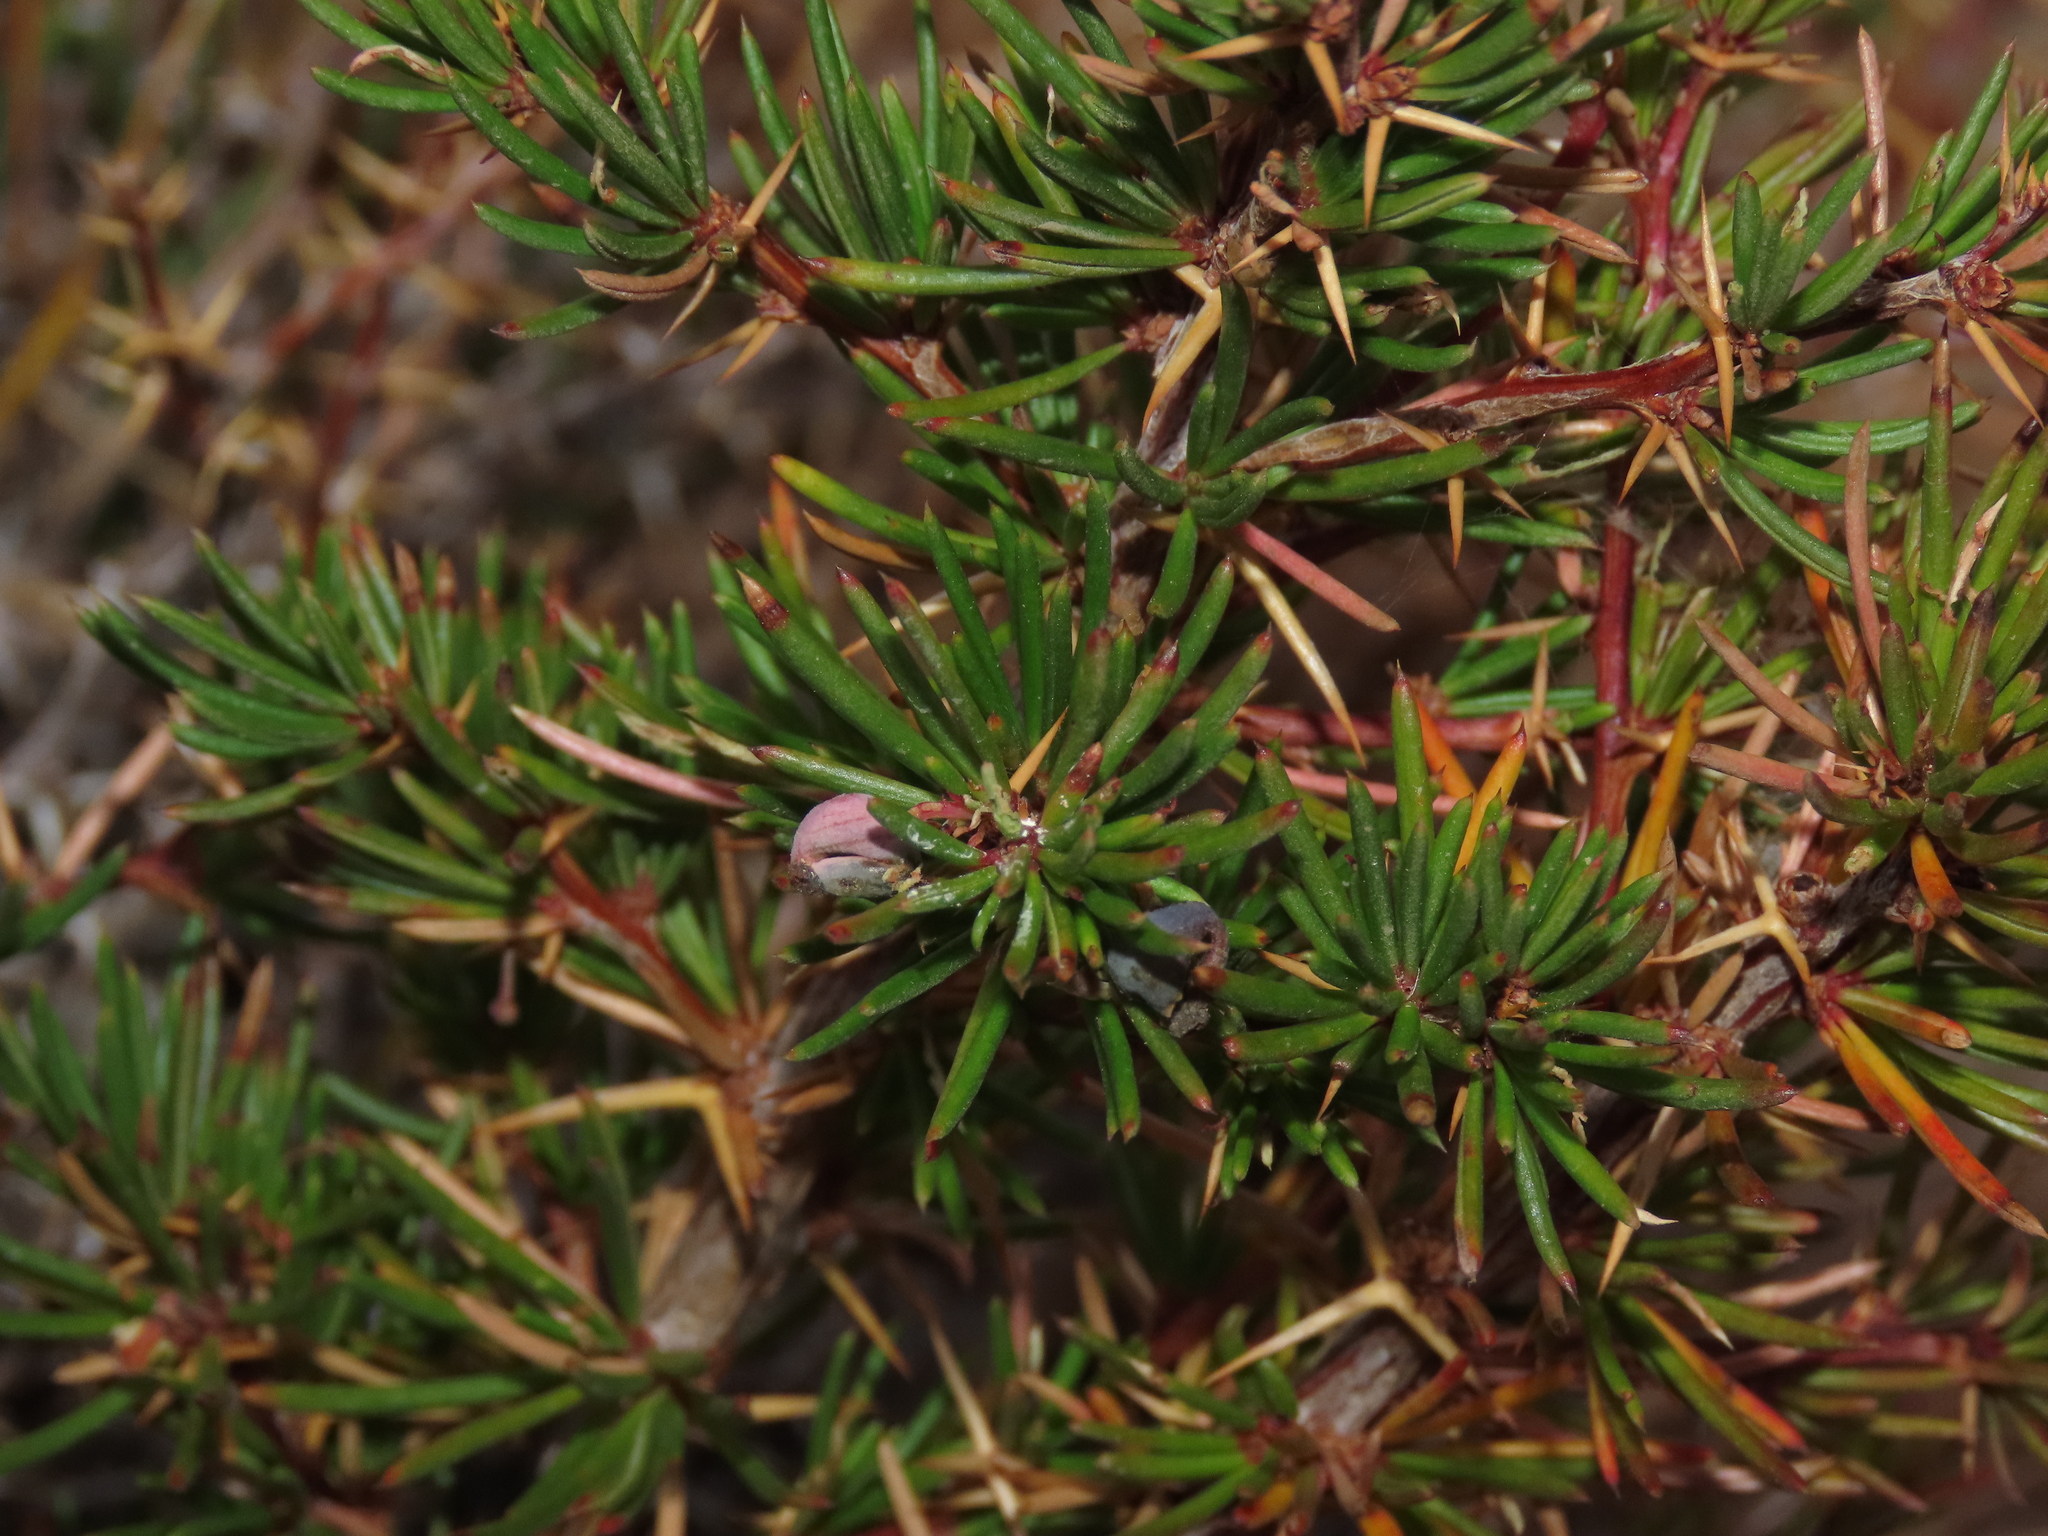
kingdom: Plantae
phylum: Tracheophyta
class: Magnoliopsida
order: Ranunculales
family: Berberidaceae
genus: Berberis
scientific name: Berberis empetrifolia
